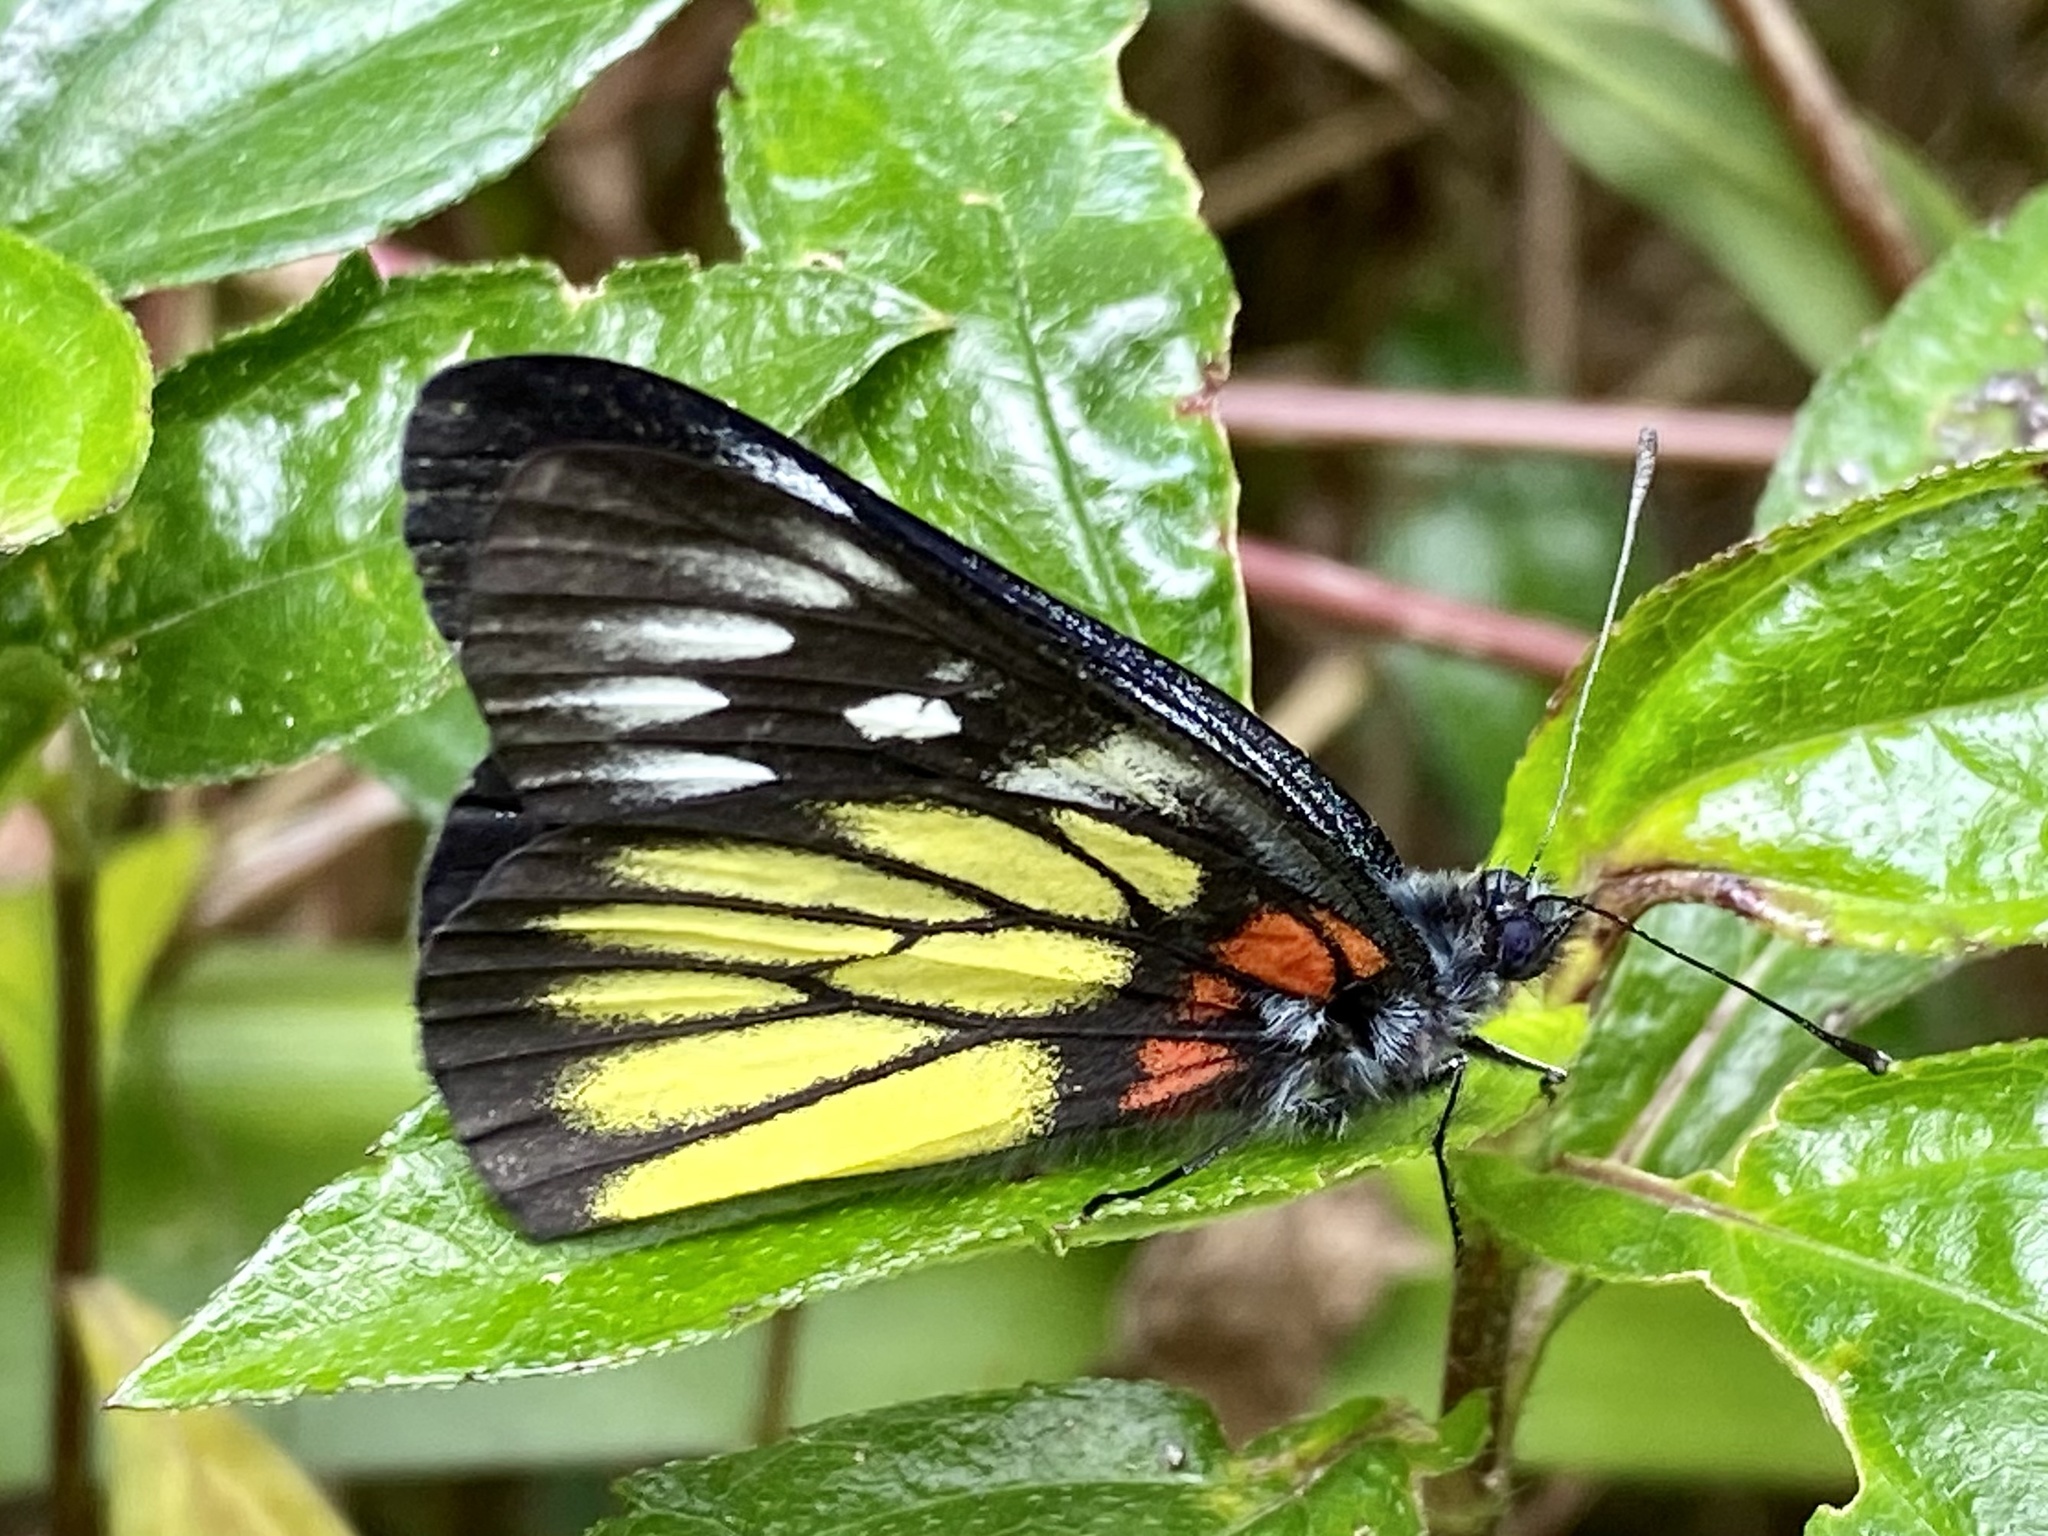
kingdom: Animalia
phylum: Arthropoda
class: Insecta
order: Lepidoptera
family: Pieridae
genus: Delias
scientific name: Delias pasithoe
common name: Red-base jezebel
